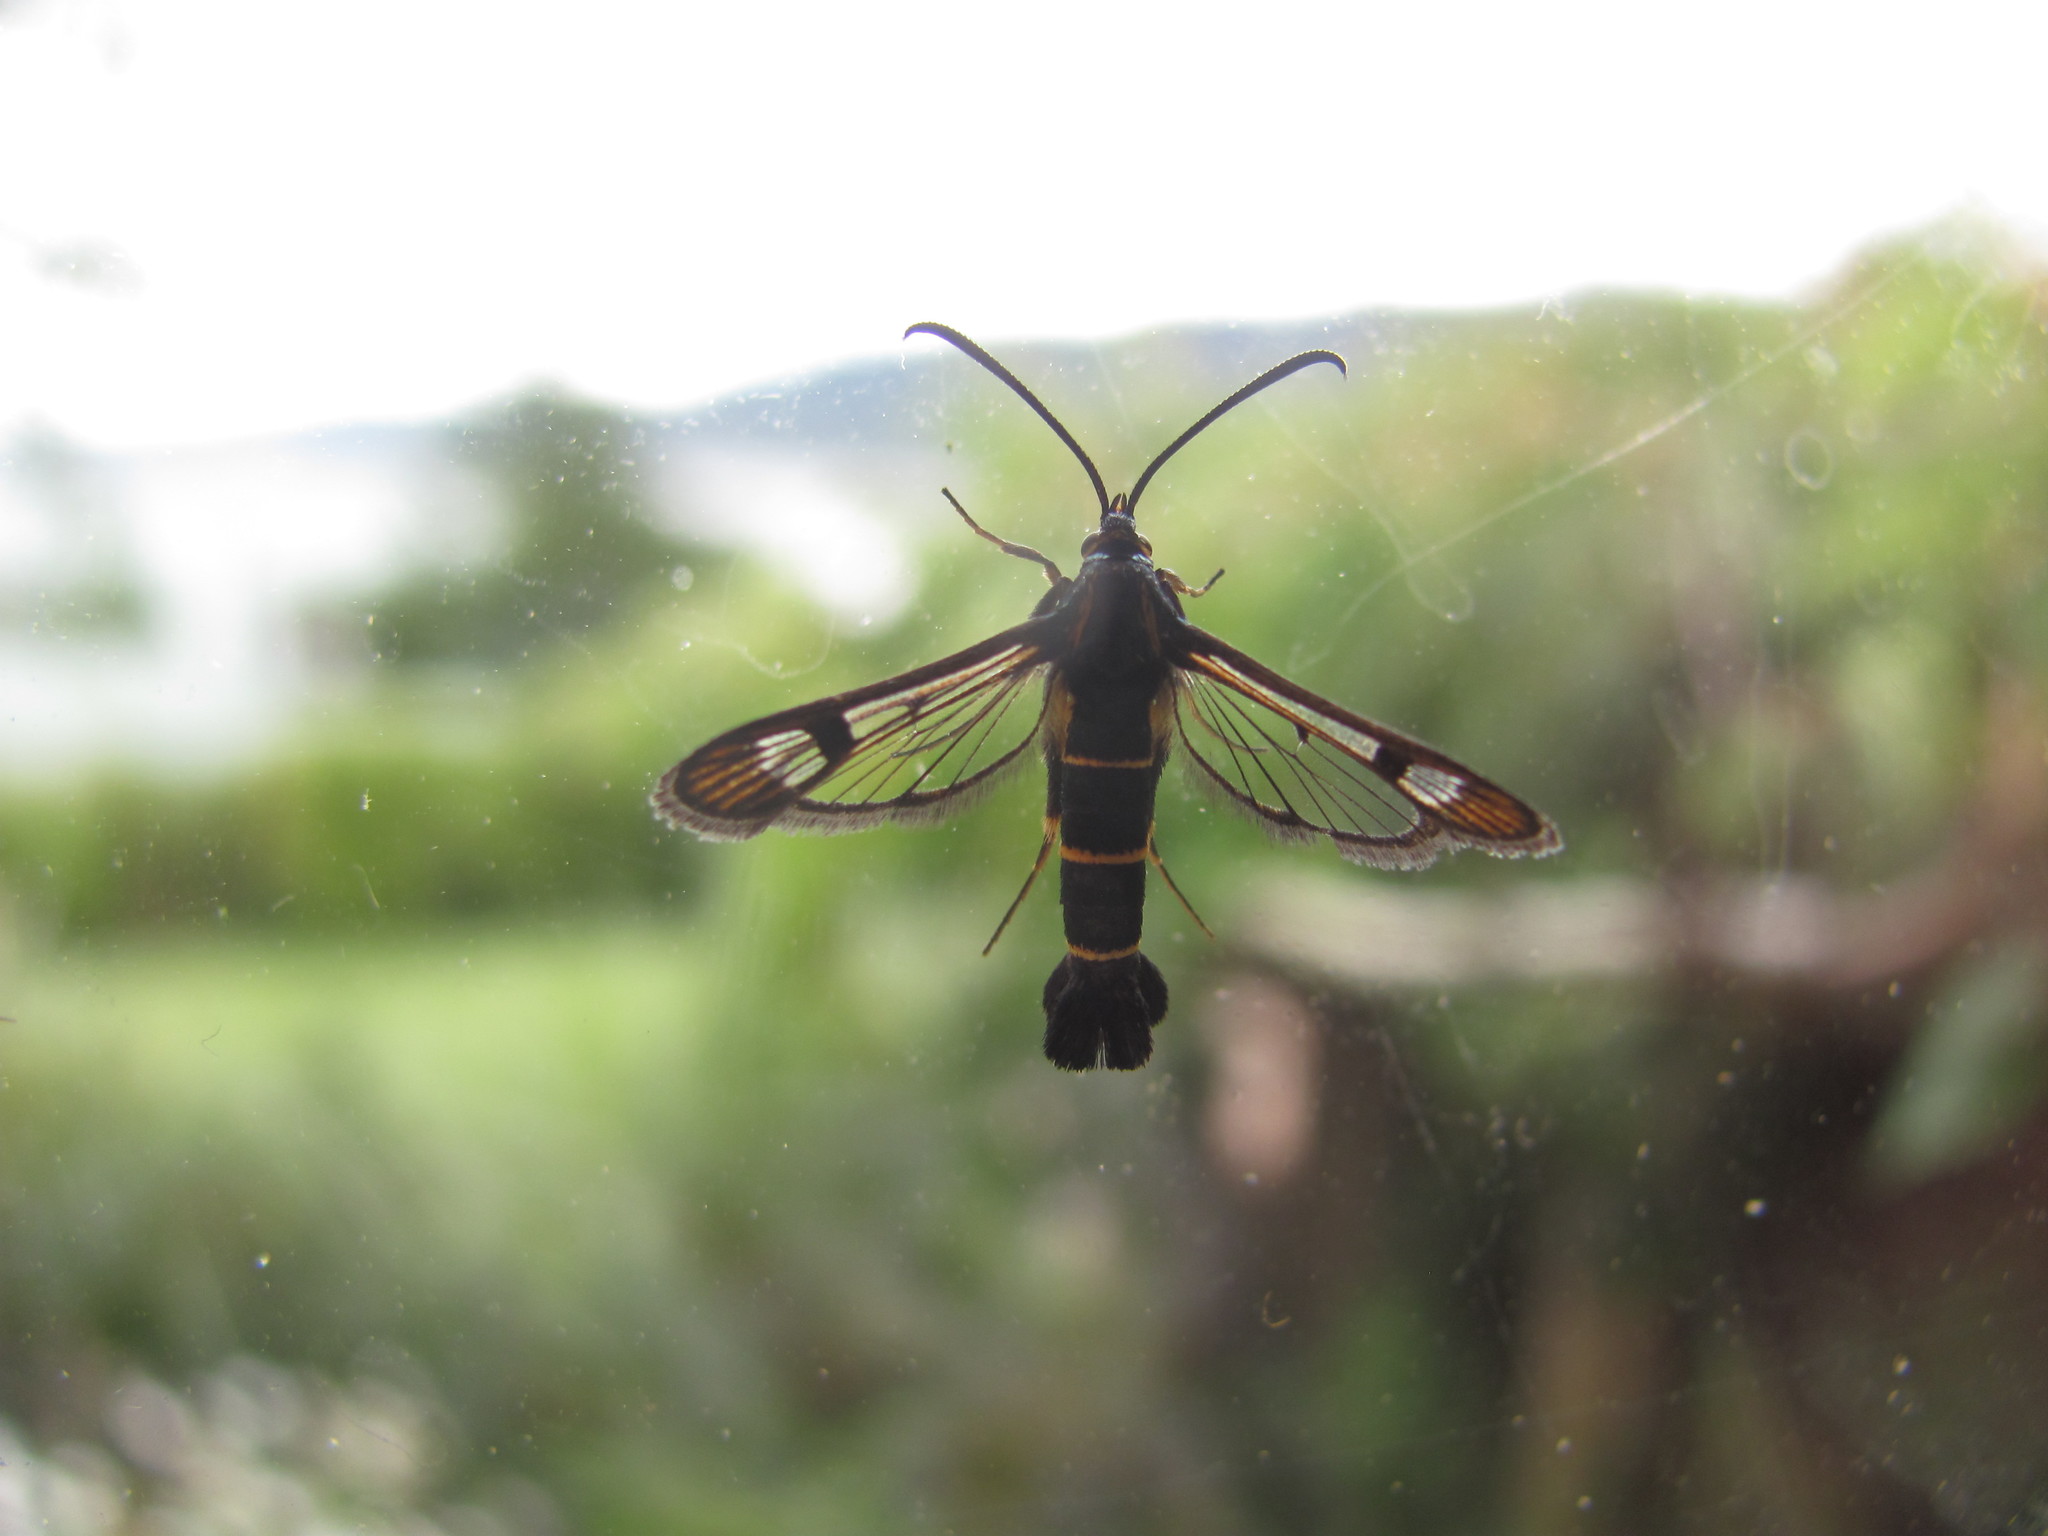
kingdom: Animalia
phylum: Arthropoda
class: Insecta
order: Lepidoptera
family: Sesiidae
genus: Synanthedon
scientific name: Synanthedon tipuliformis
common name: Currant clearwing
